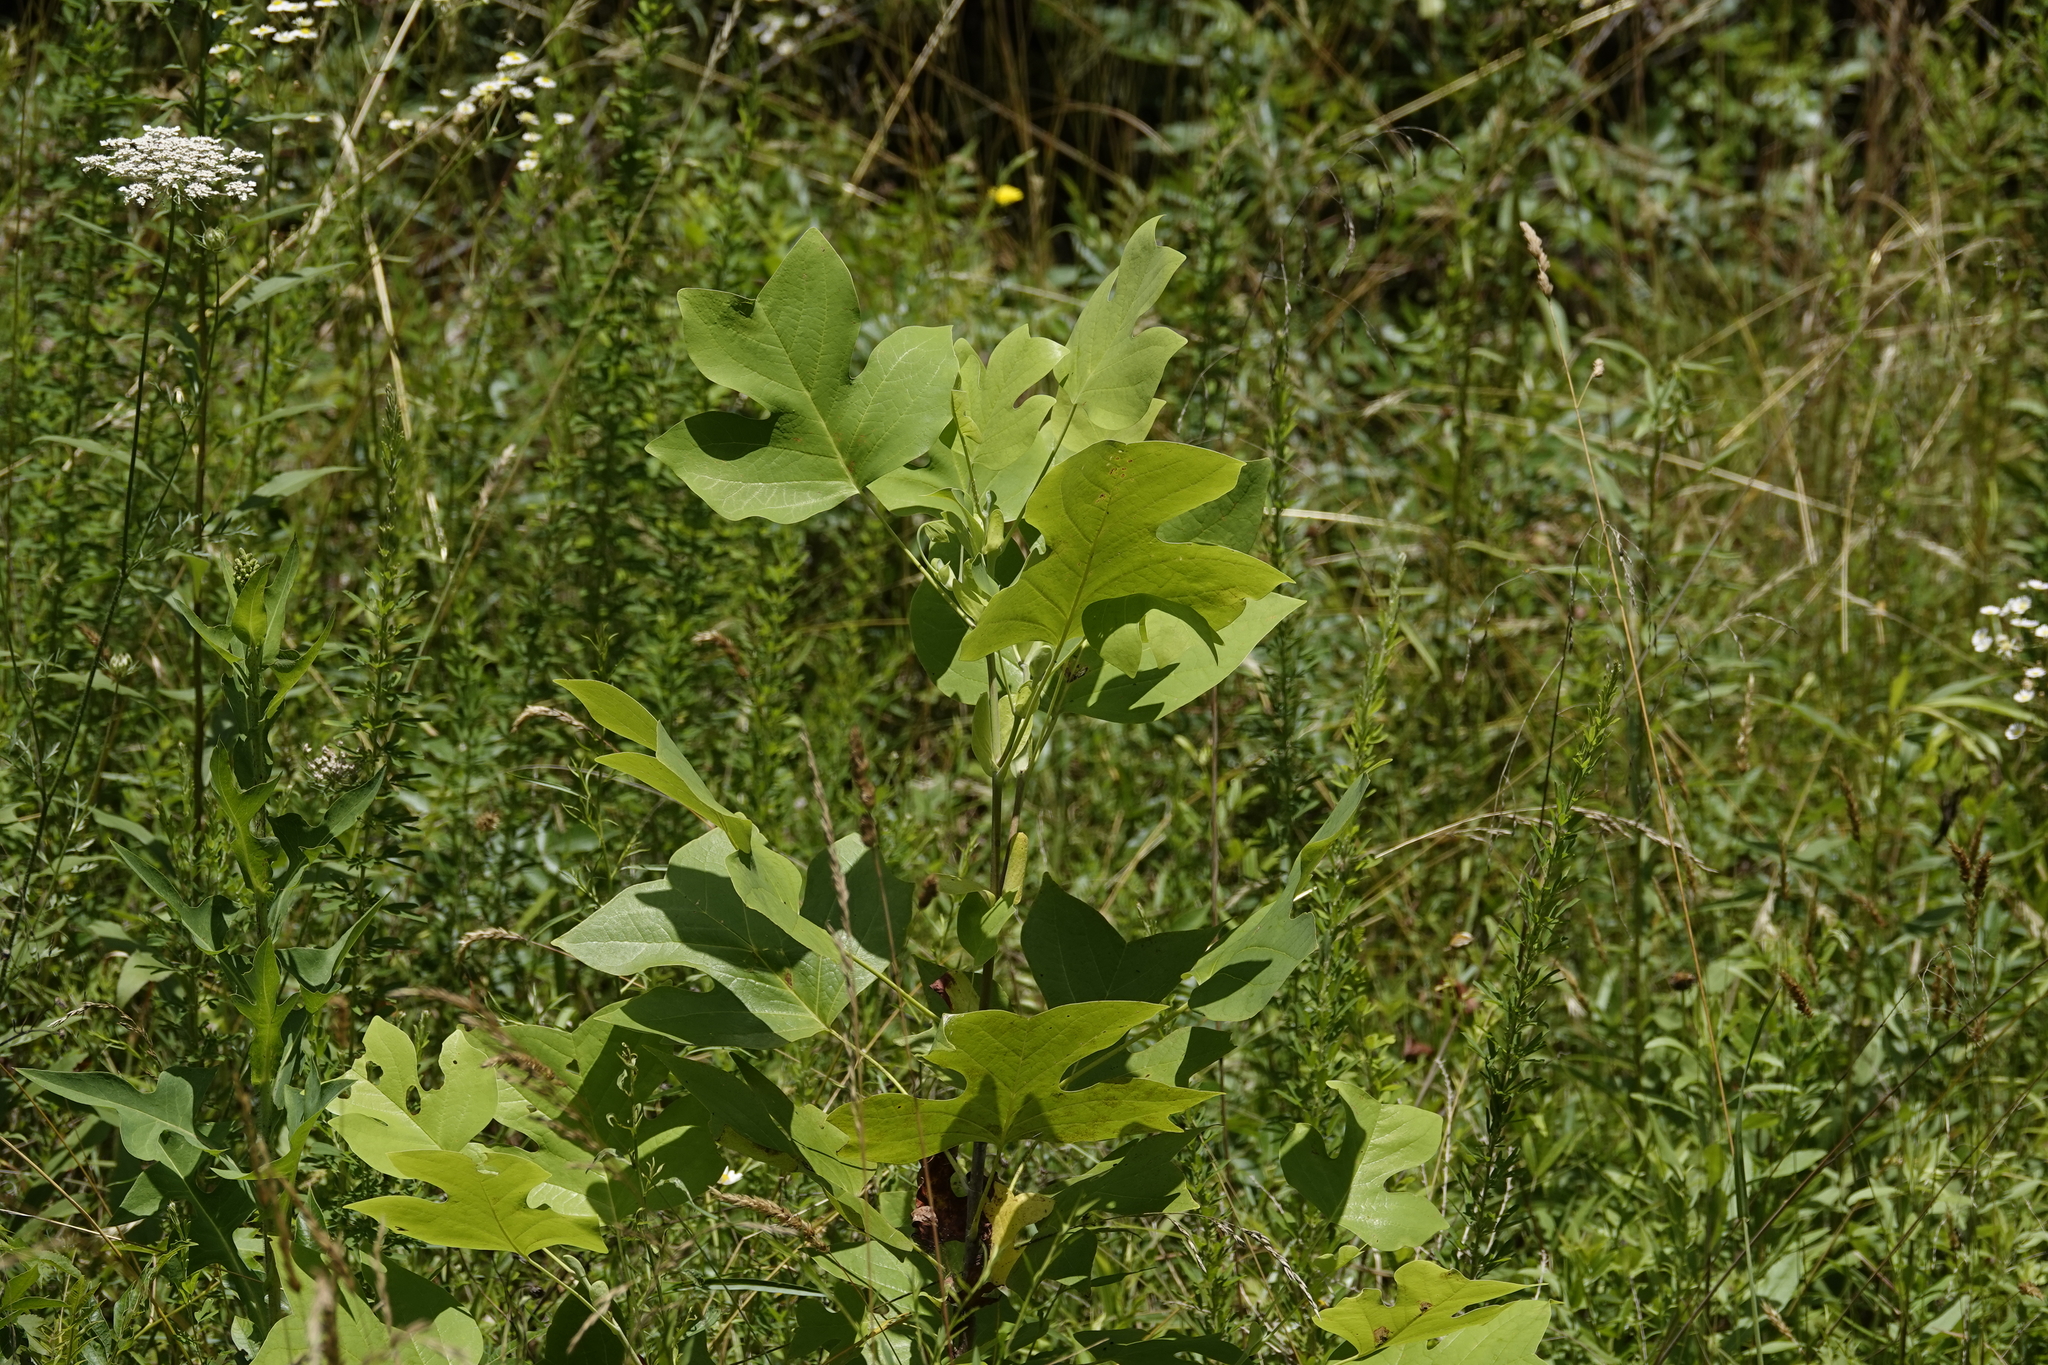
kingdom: Plantae
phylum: Tracheophyta
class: Magnoliopsida
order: Magnoliales
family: Magnoliaceae
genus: Liriodendron
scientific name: Liriodendron tulipifera
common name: Tulip tree
